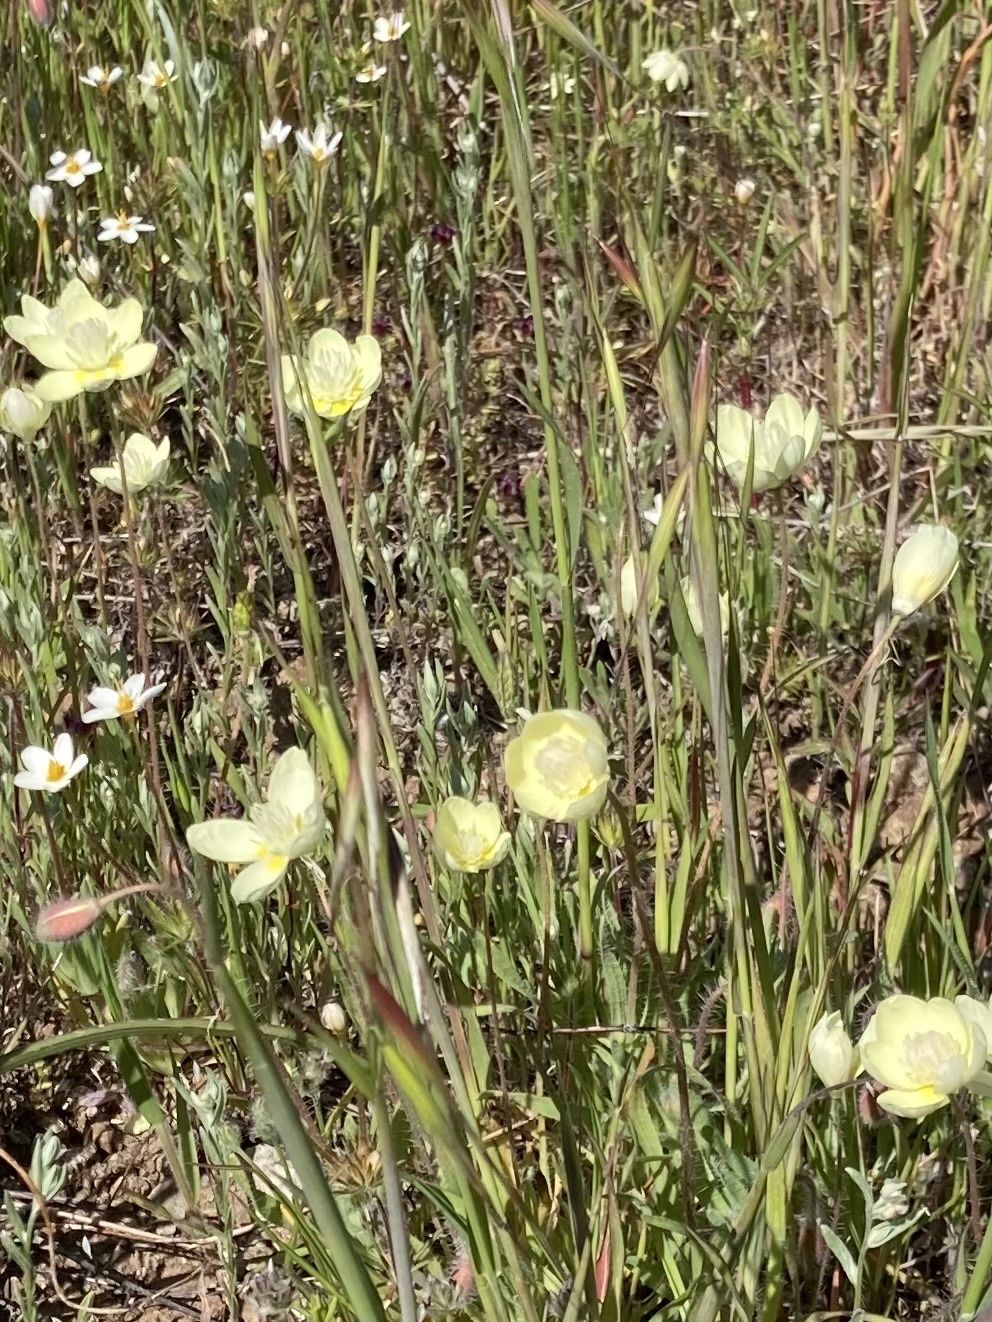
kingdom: Plantae
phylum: Tracheophyta
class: Magnoliopsida
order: Ranunculales
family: Papaveraceae
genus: Platystemon
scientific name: Platystemon californicus
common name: Cream-cups
